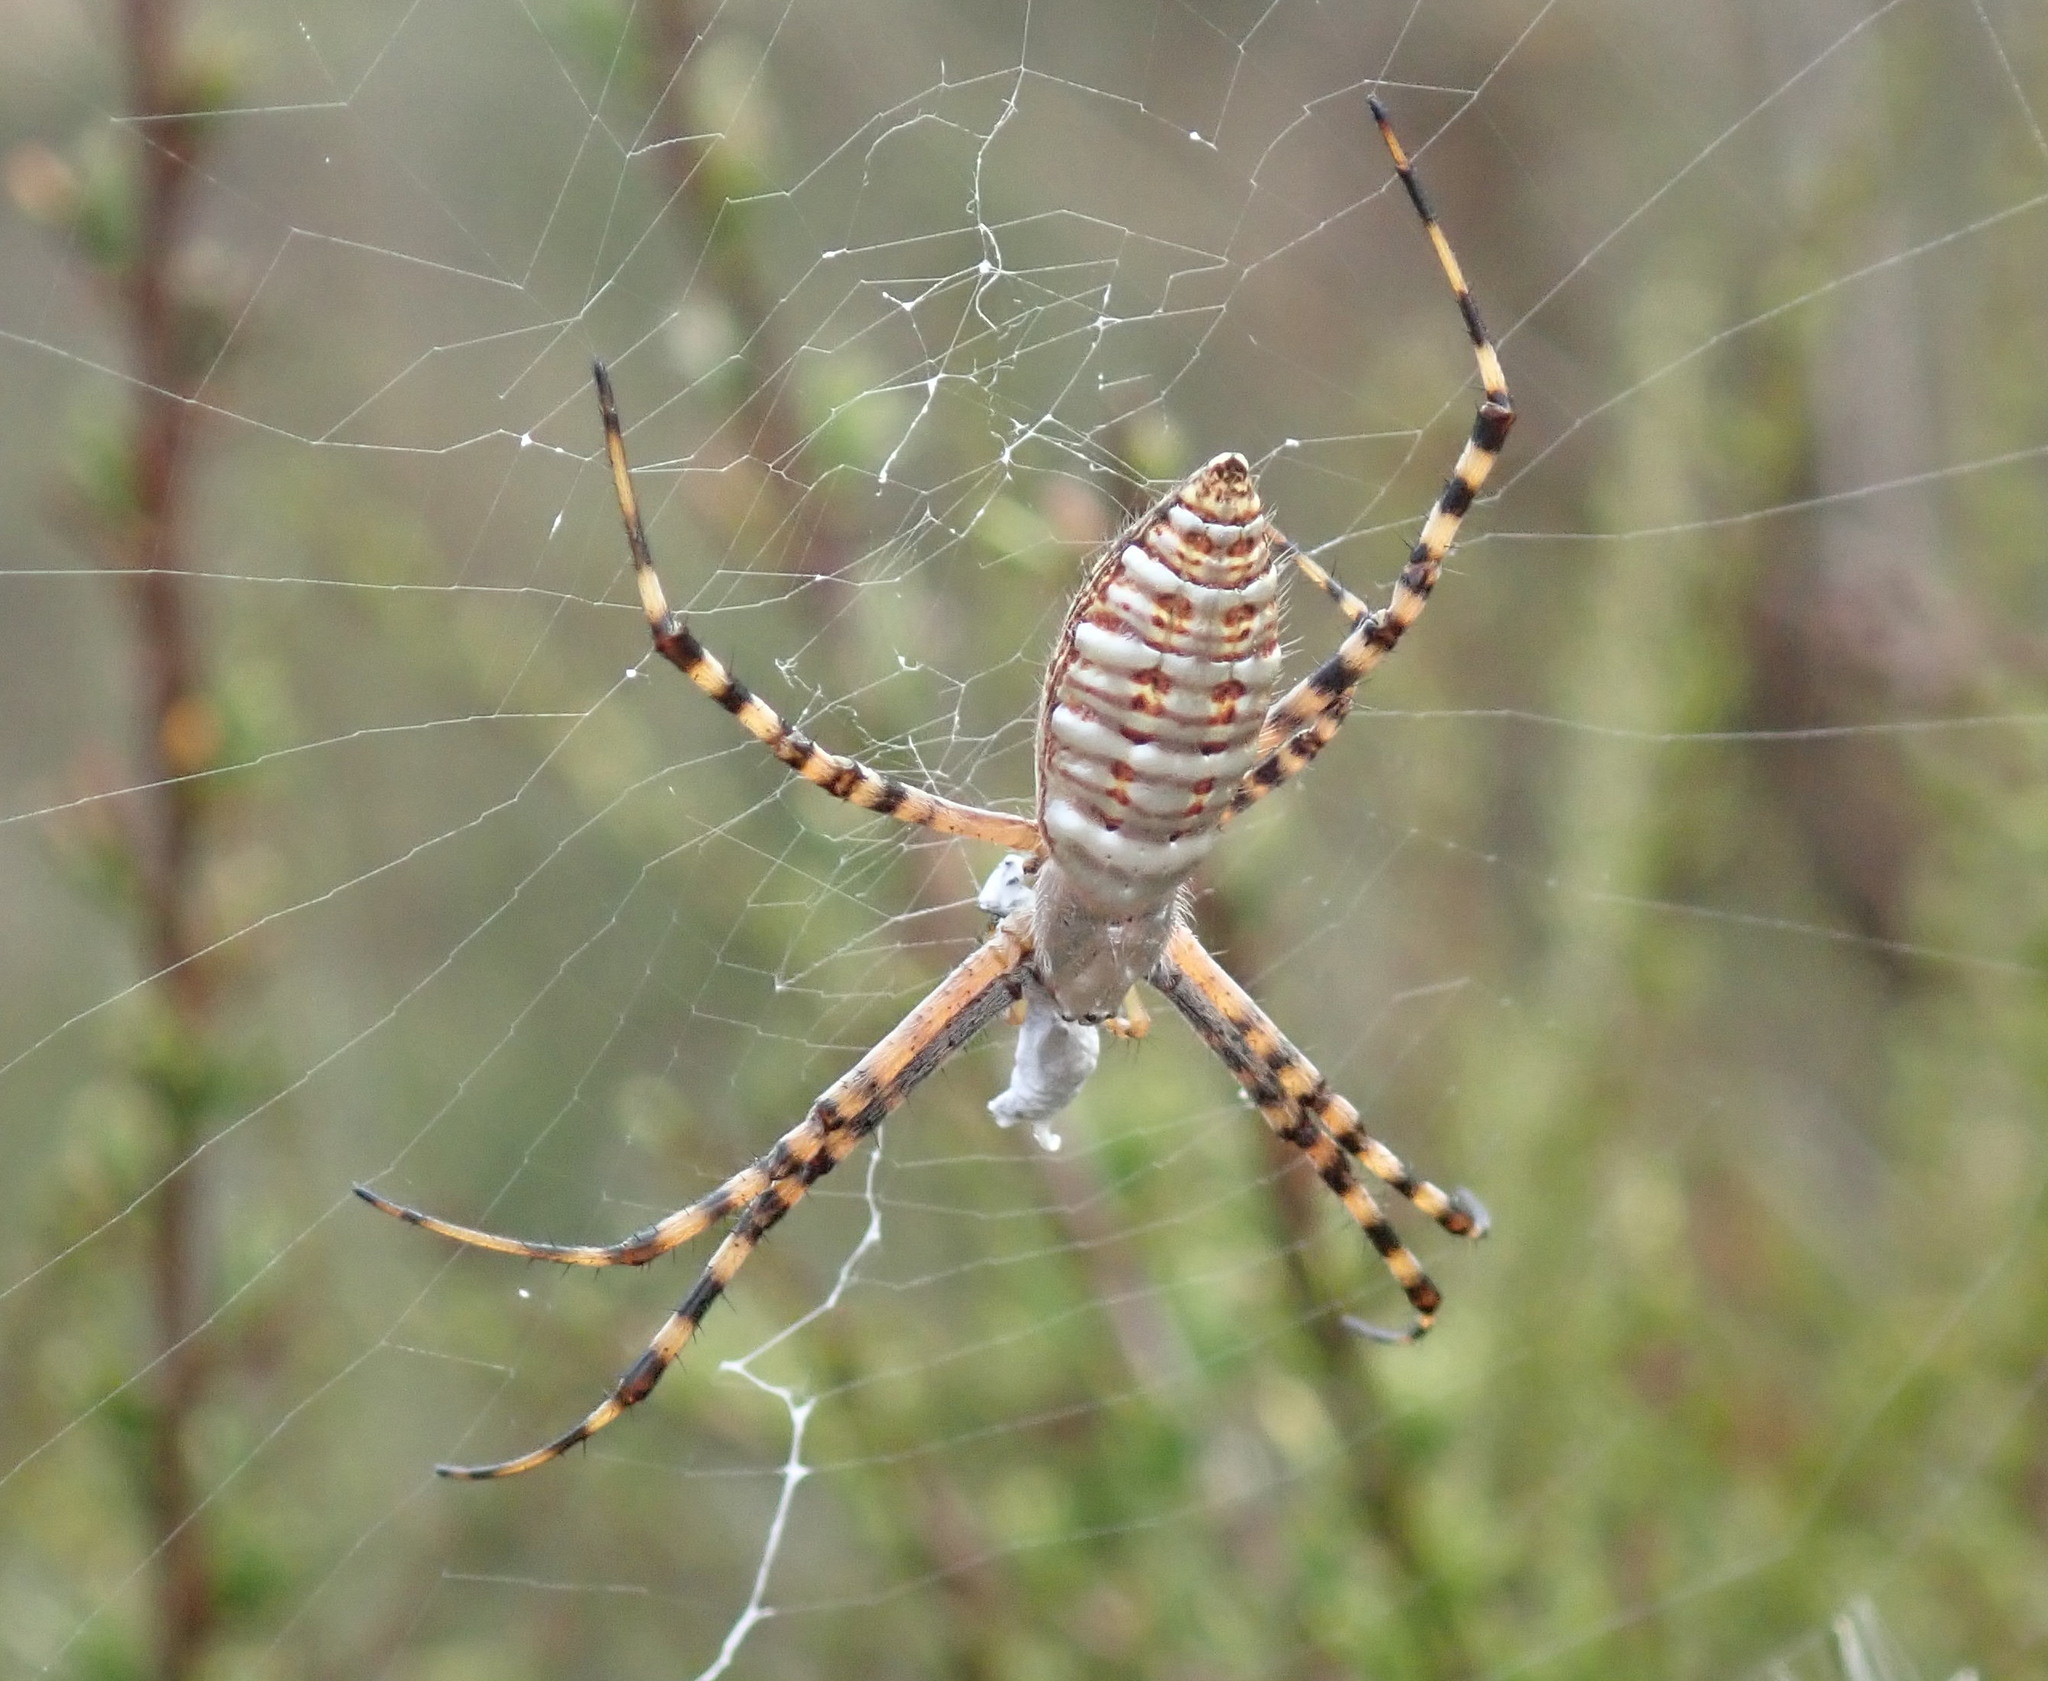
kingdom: Animalia
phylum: Arthropoda
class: Arachnida
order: Araneae
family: Araneidae
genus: Argiope
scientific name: Argiope trifasciata
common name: Banded garden spider
